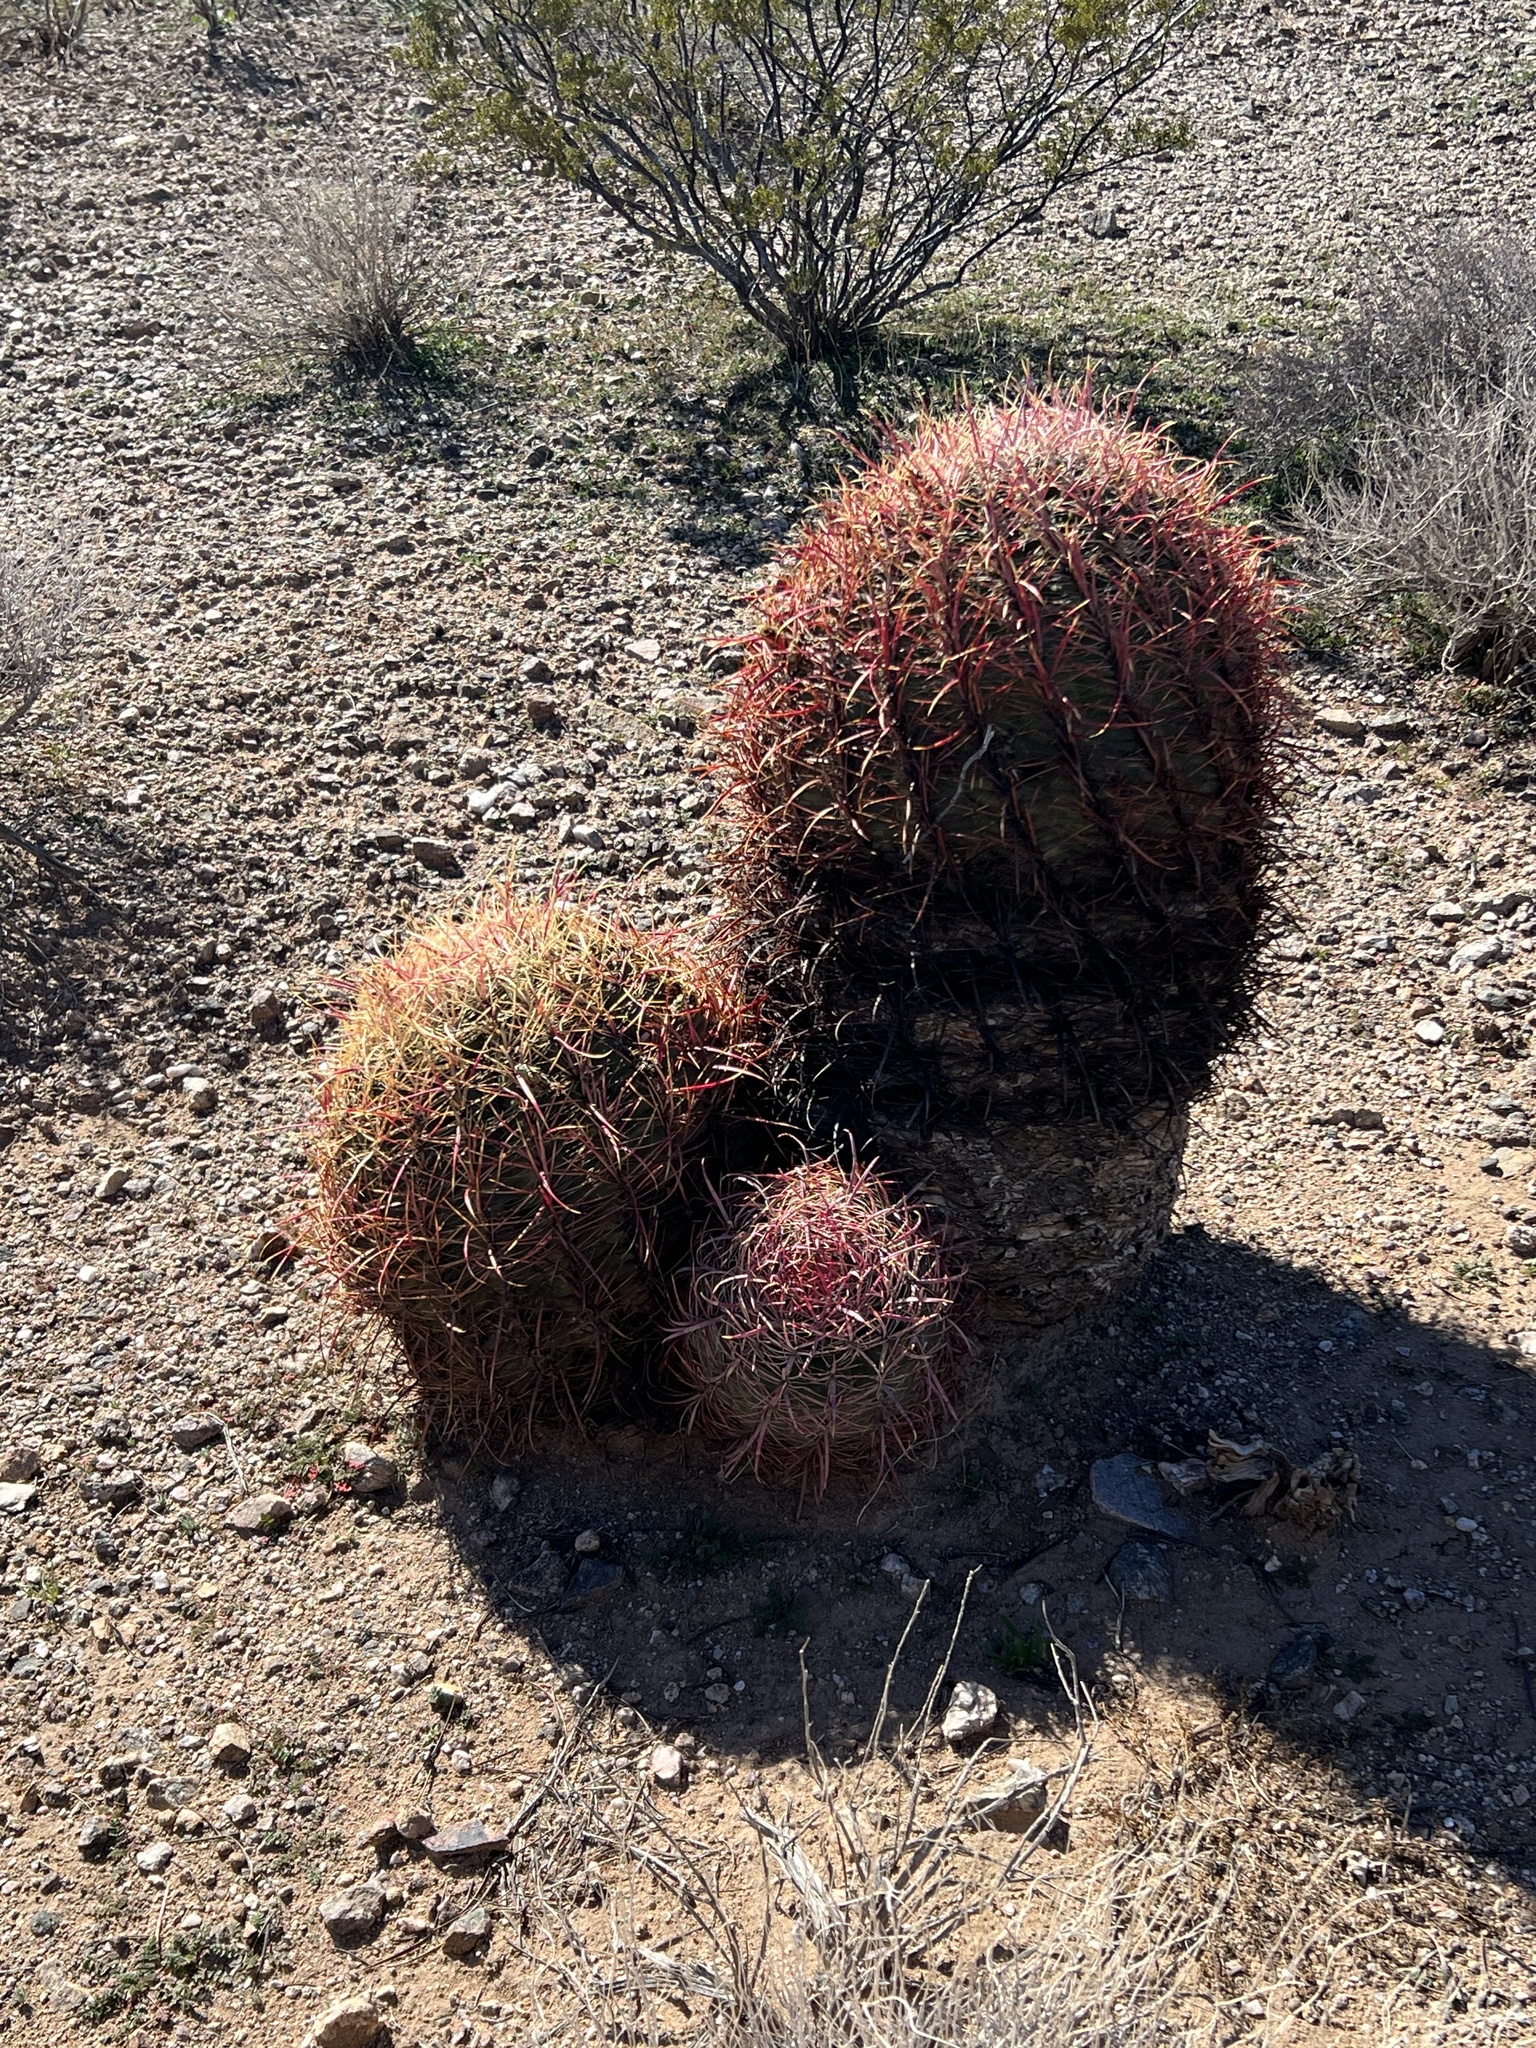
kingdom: Plantae
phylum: Tracheophyta
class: Magnoliopsida
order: Caryophyllales
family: Cactaceae
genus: Ferocactus
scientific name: Ferocactus cylindraceus
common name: California barrel cactus
